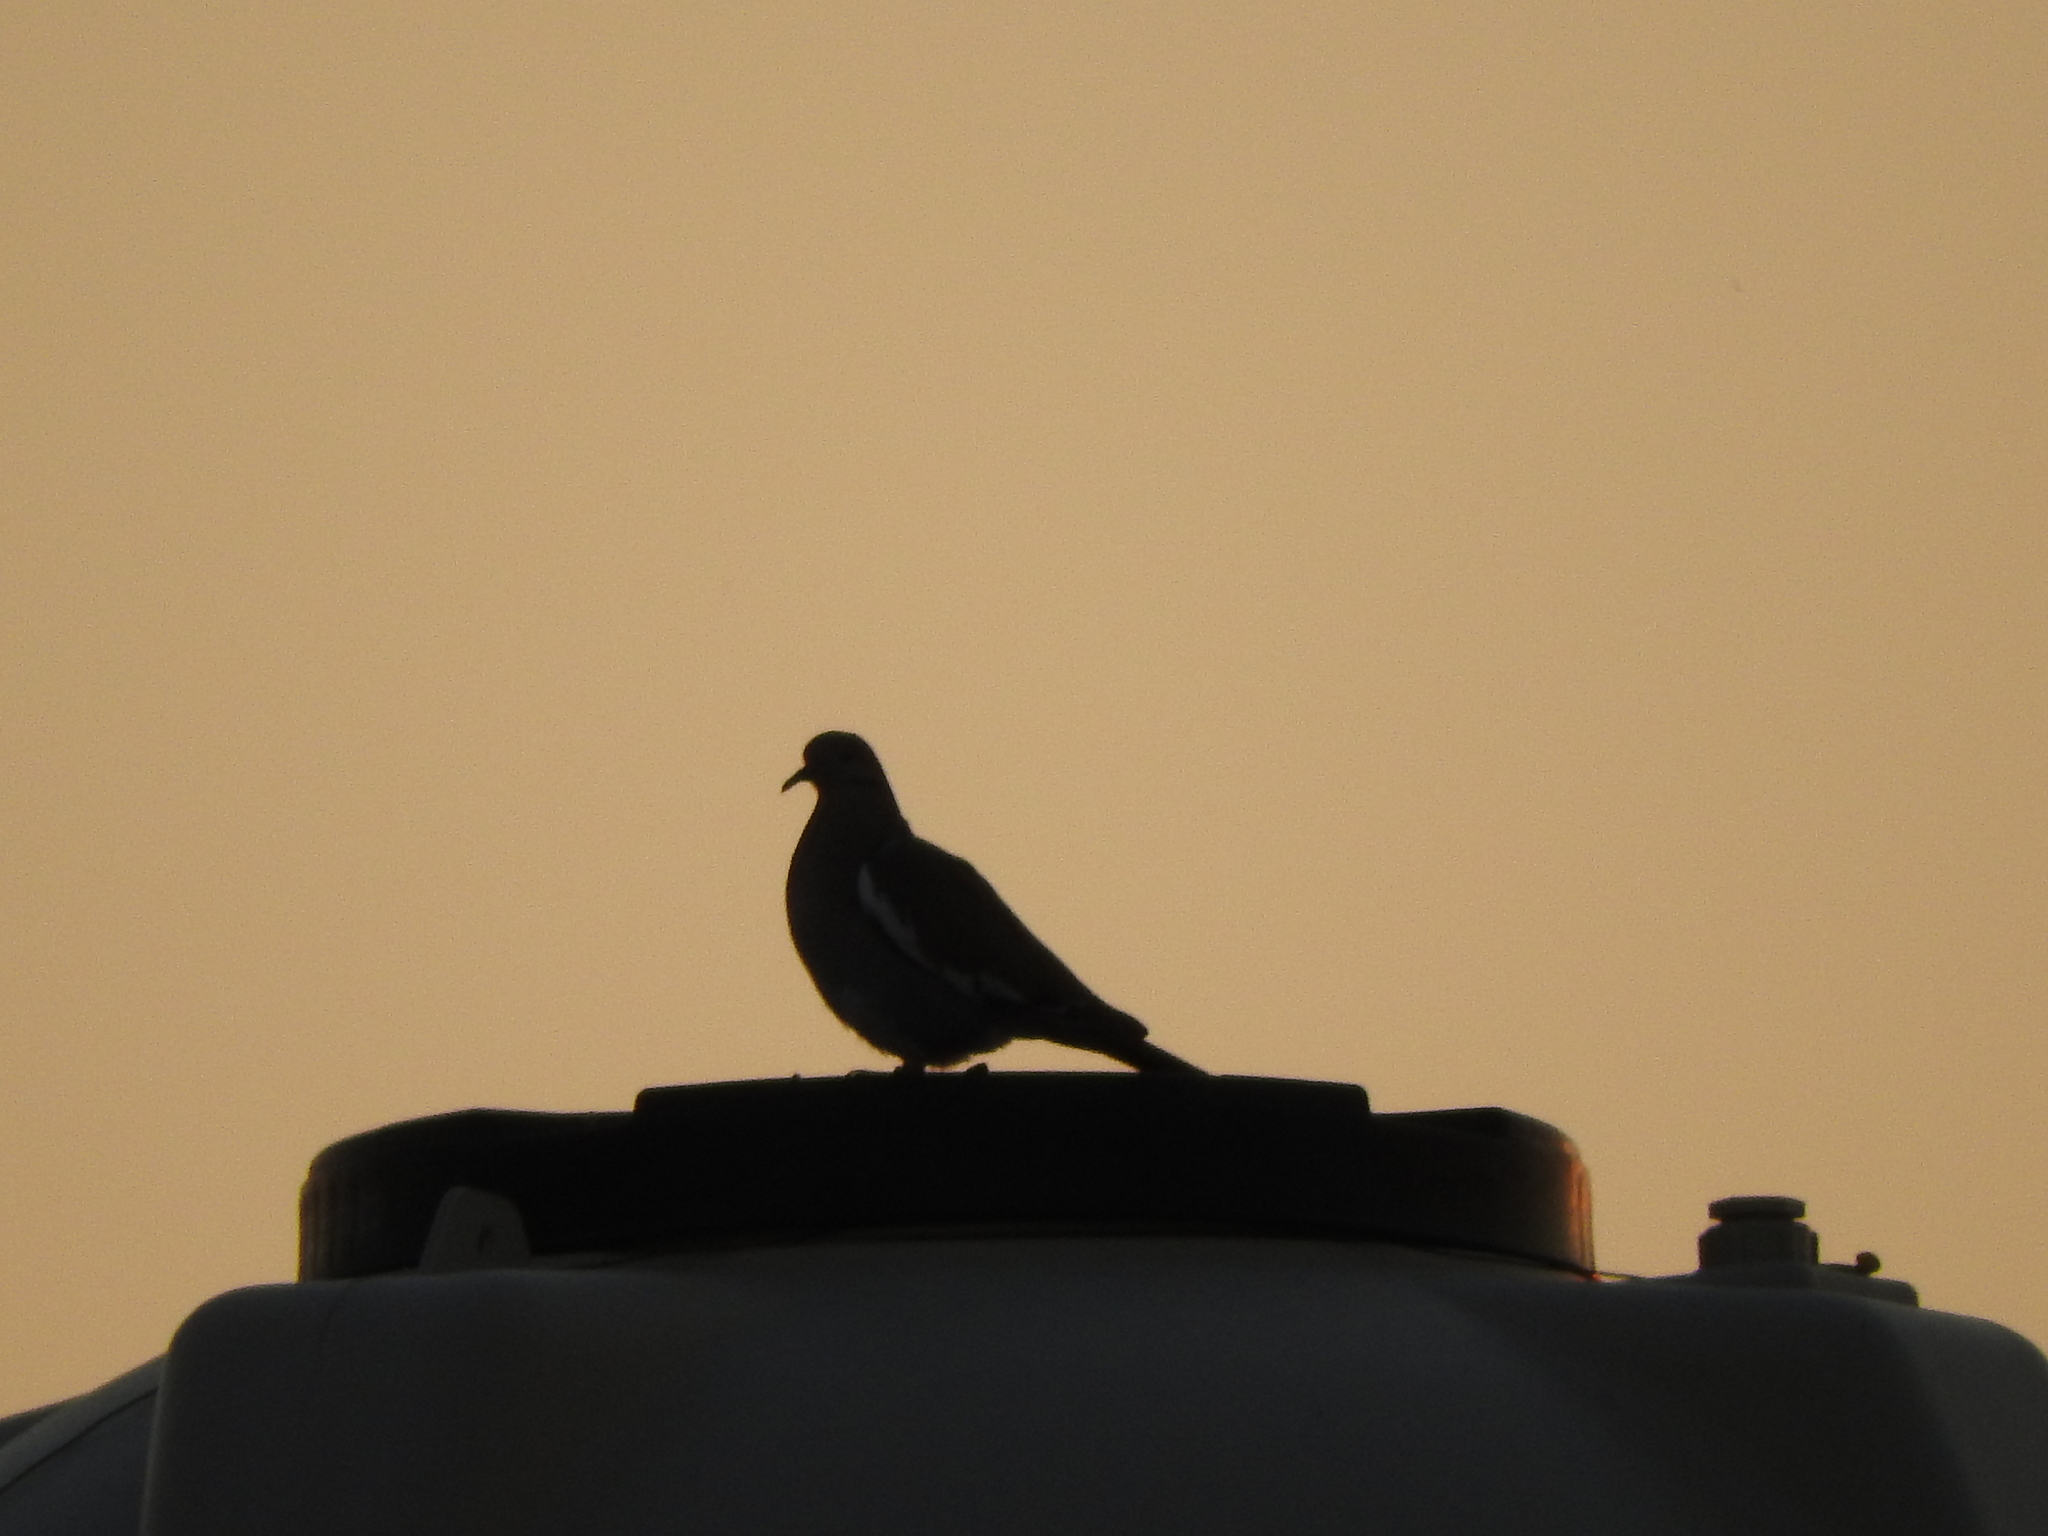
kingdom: Animalia
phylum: Chordata
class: Aves
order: Columbiformes
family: Columbidae
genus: Zenaida
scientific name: Zenaida asiatica
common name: White-winged dove
